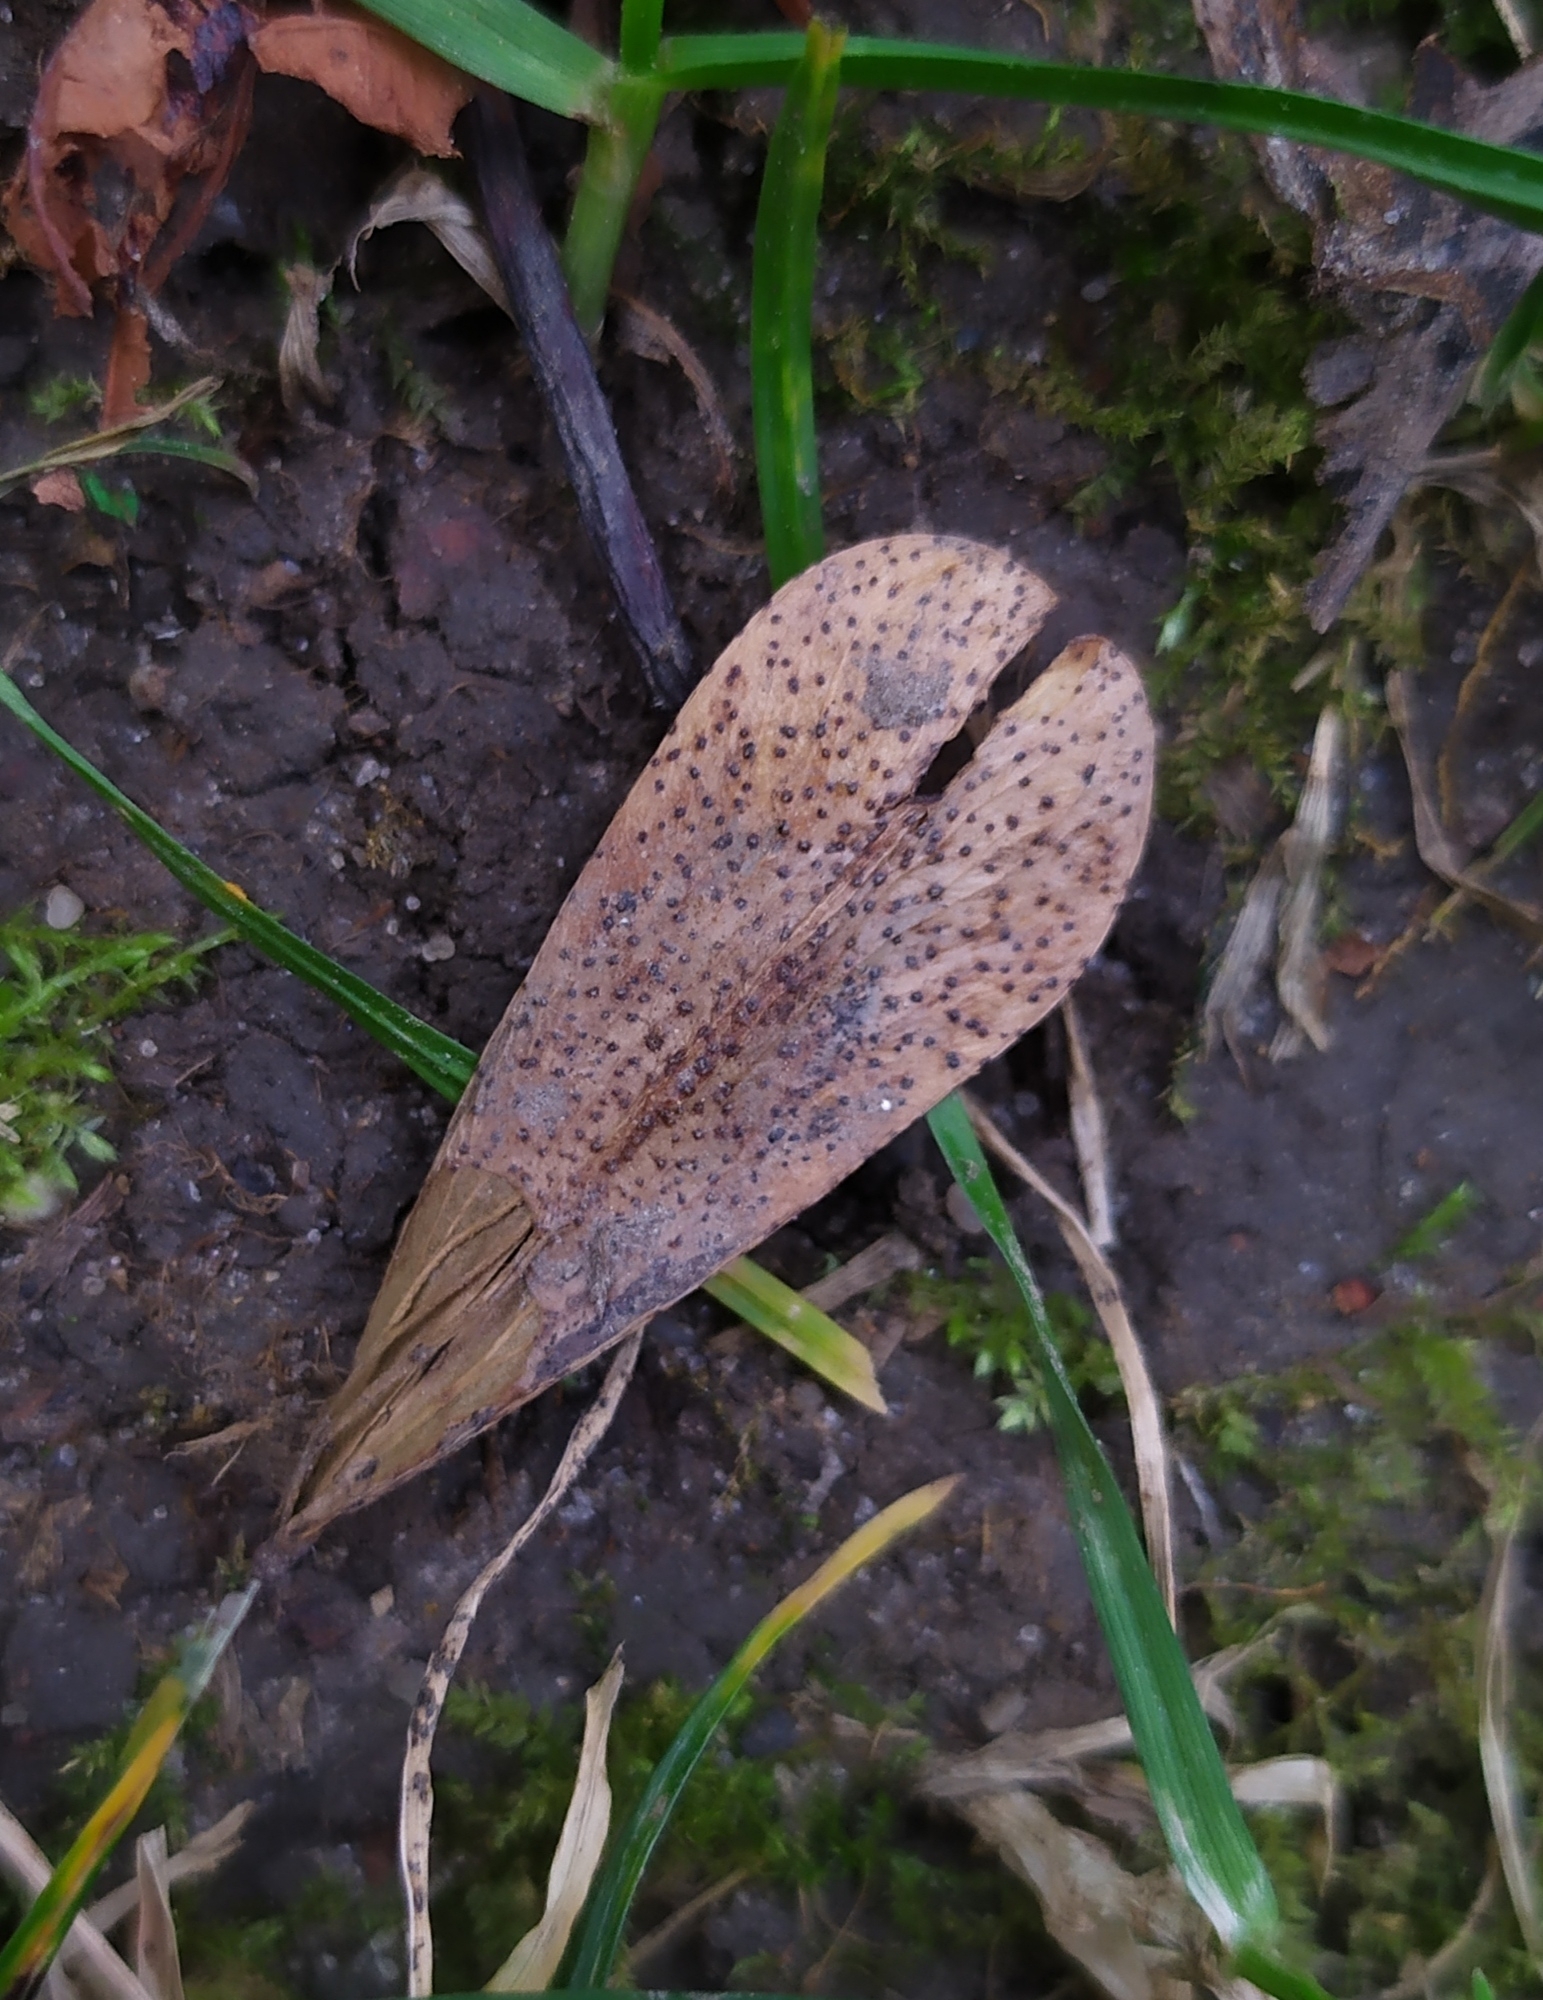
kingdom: Fungi
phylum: Ascomycota
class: Sordariomycetes
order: Diaporthales
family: Diaporthaceae
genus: Diaporthe
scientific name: Diaporthe samaricola
